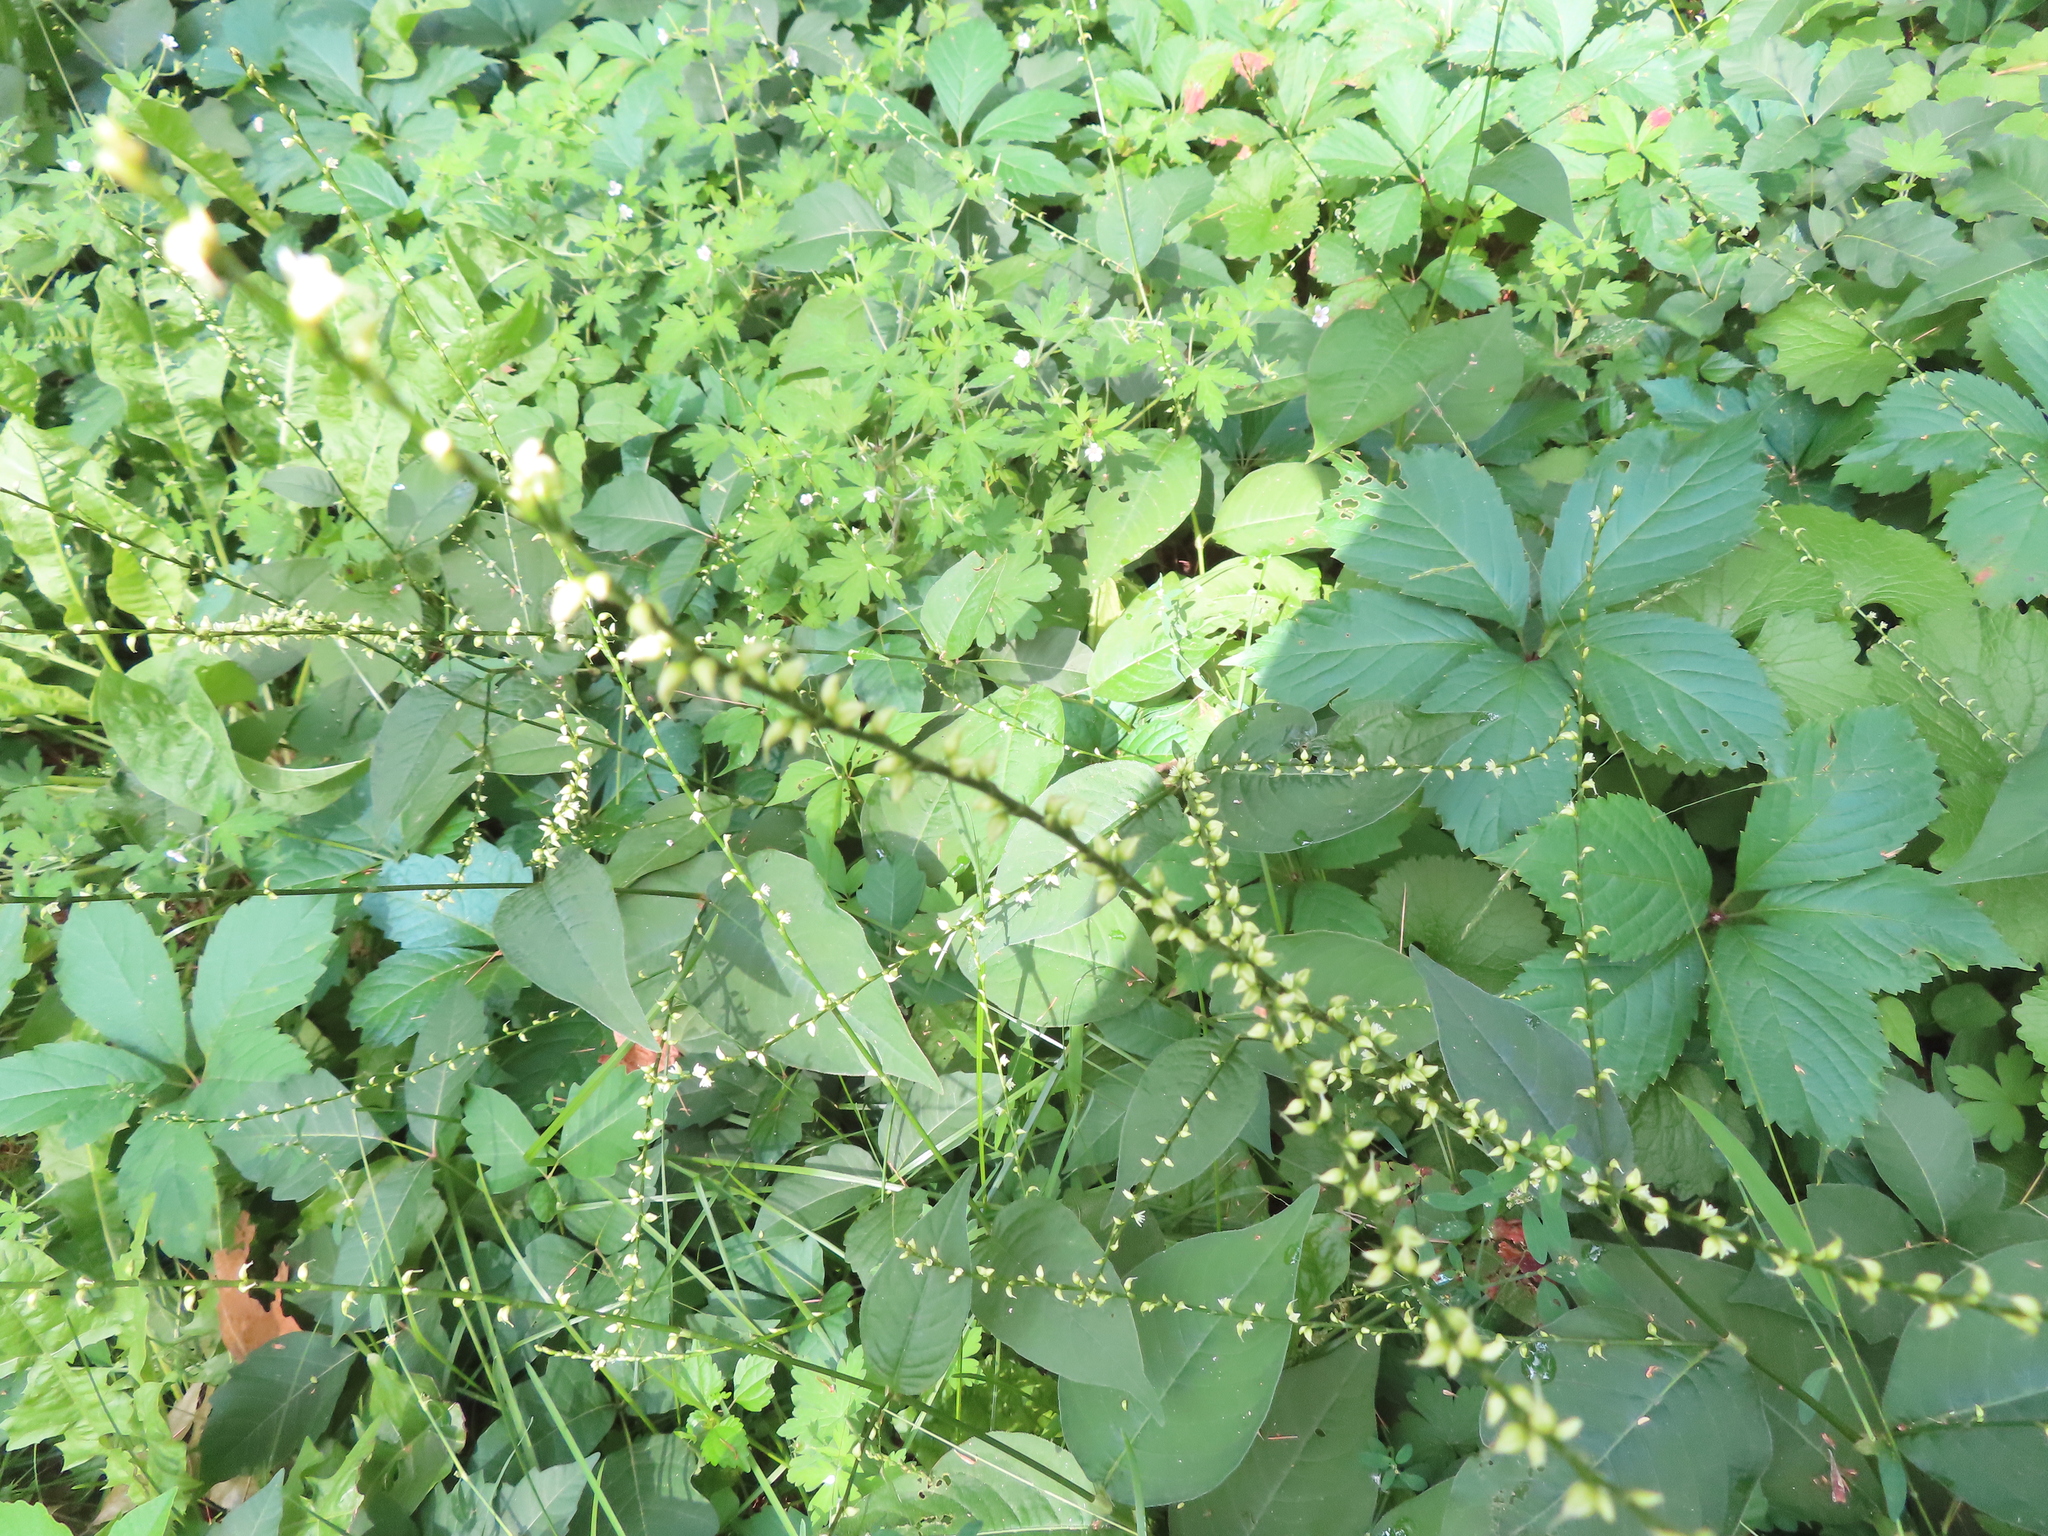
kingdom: Plantae
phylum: Tracheophyta
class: Magnoliopsida
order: Caryophyllales
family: Polygonaceae
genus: Persicaria
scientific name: Persicaria virginiana
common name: Jumpseed
